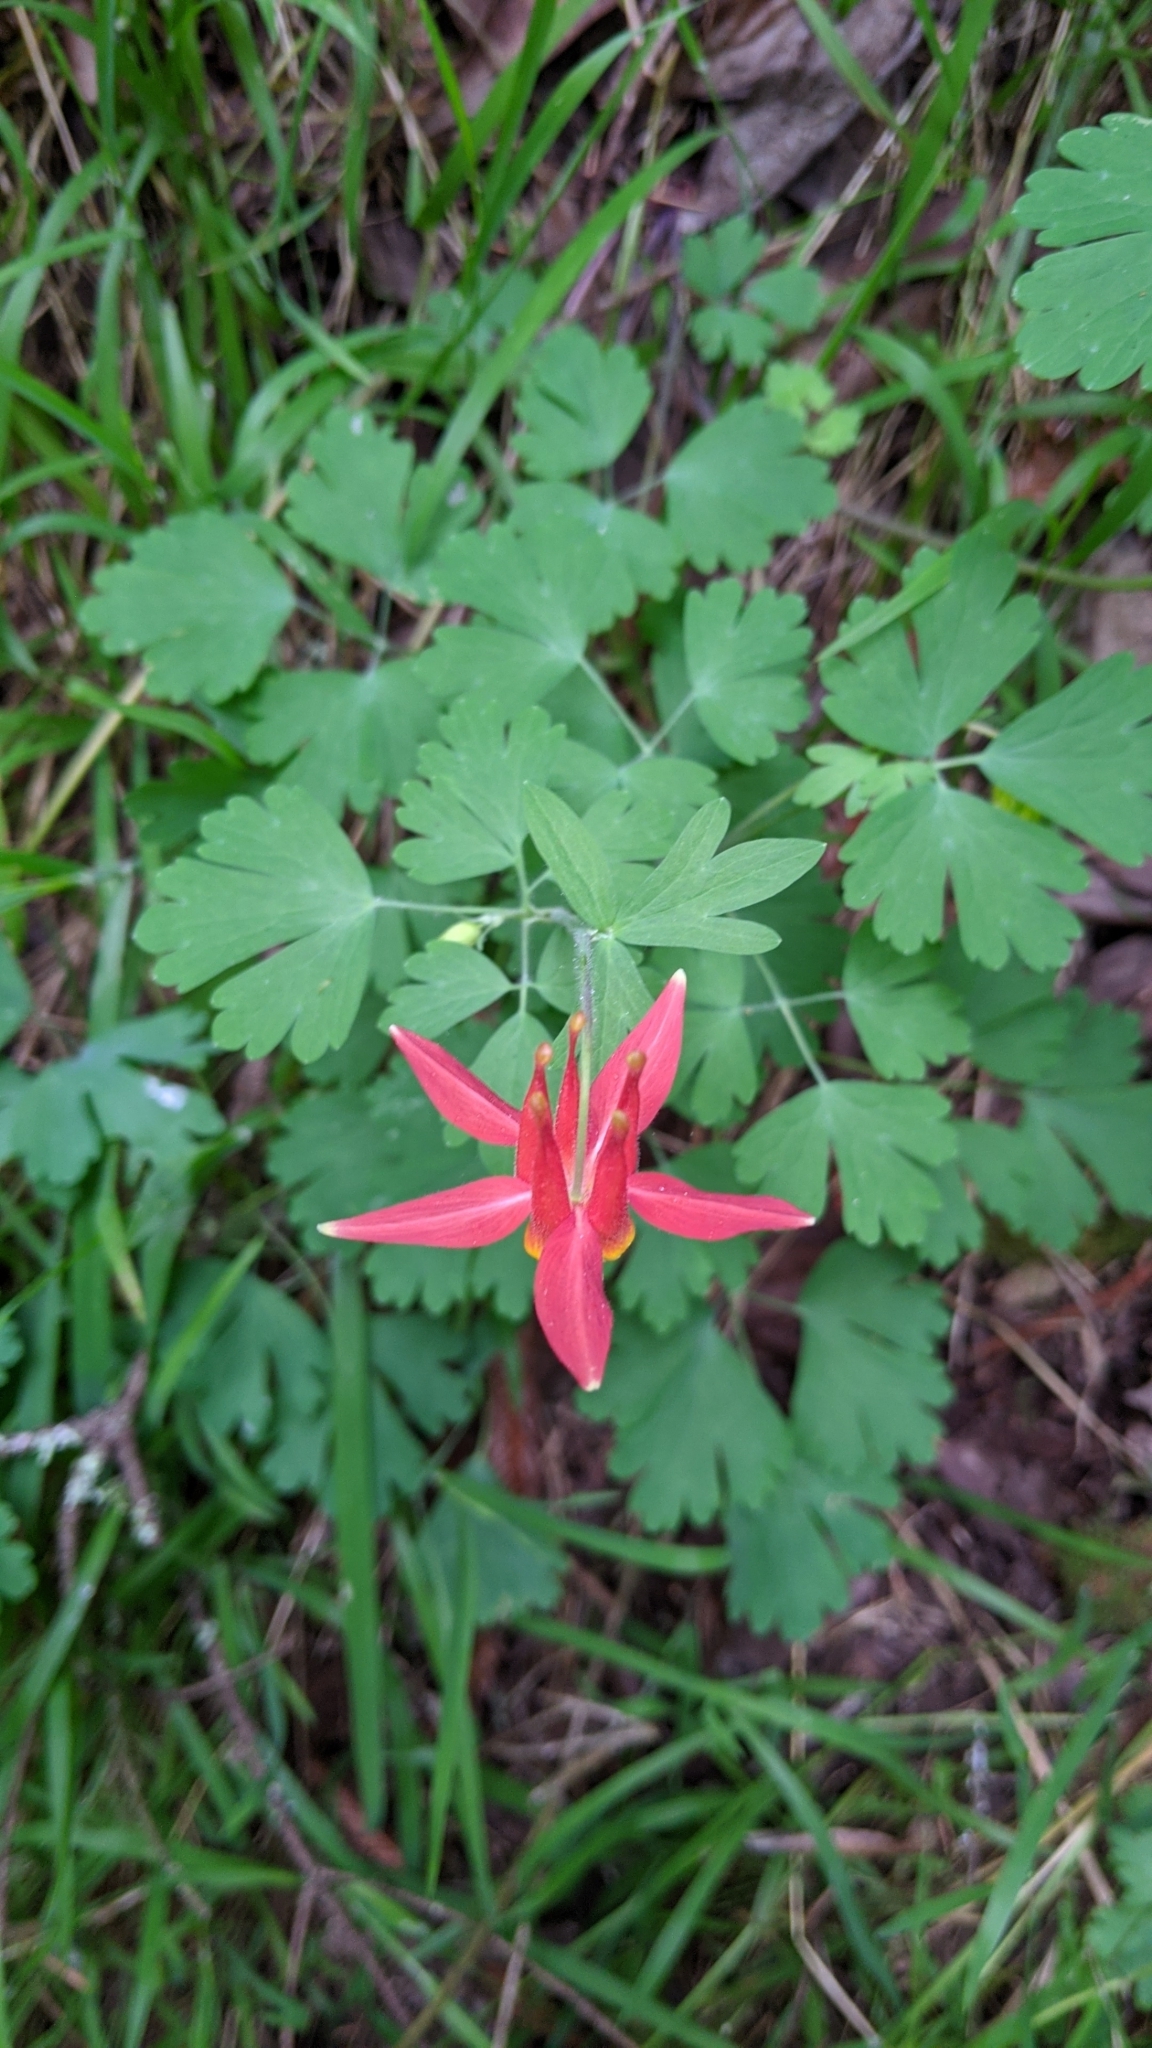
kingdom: Plantae
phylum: Tracheophyta
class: Magnoliopsida
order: Ranunculales
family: Ranunculaceae
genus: Aquilegia
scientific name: Aquilegia formosa
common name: Sitka columbine
